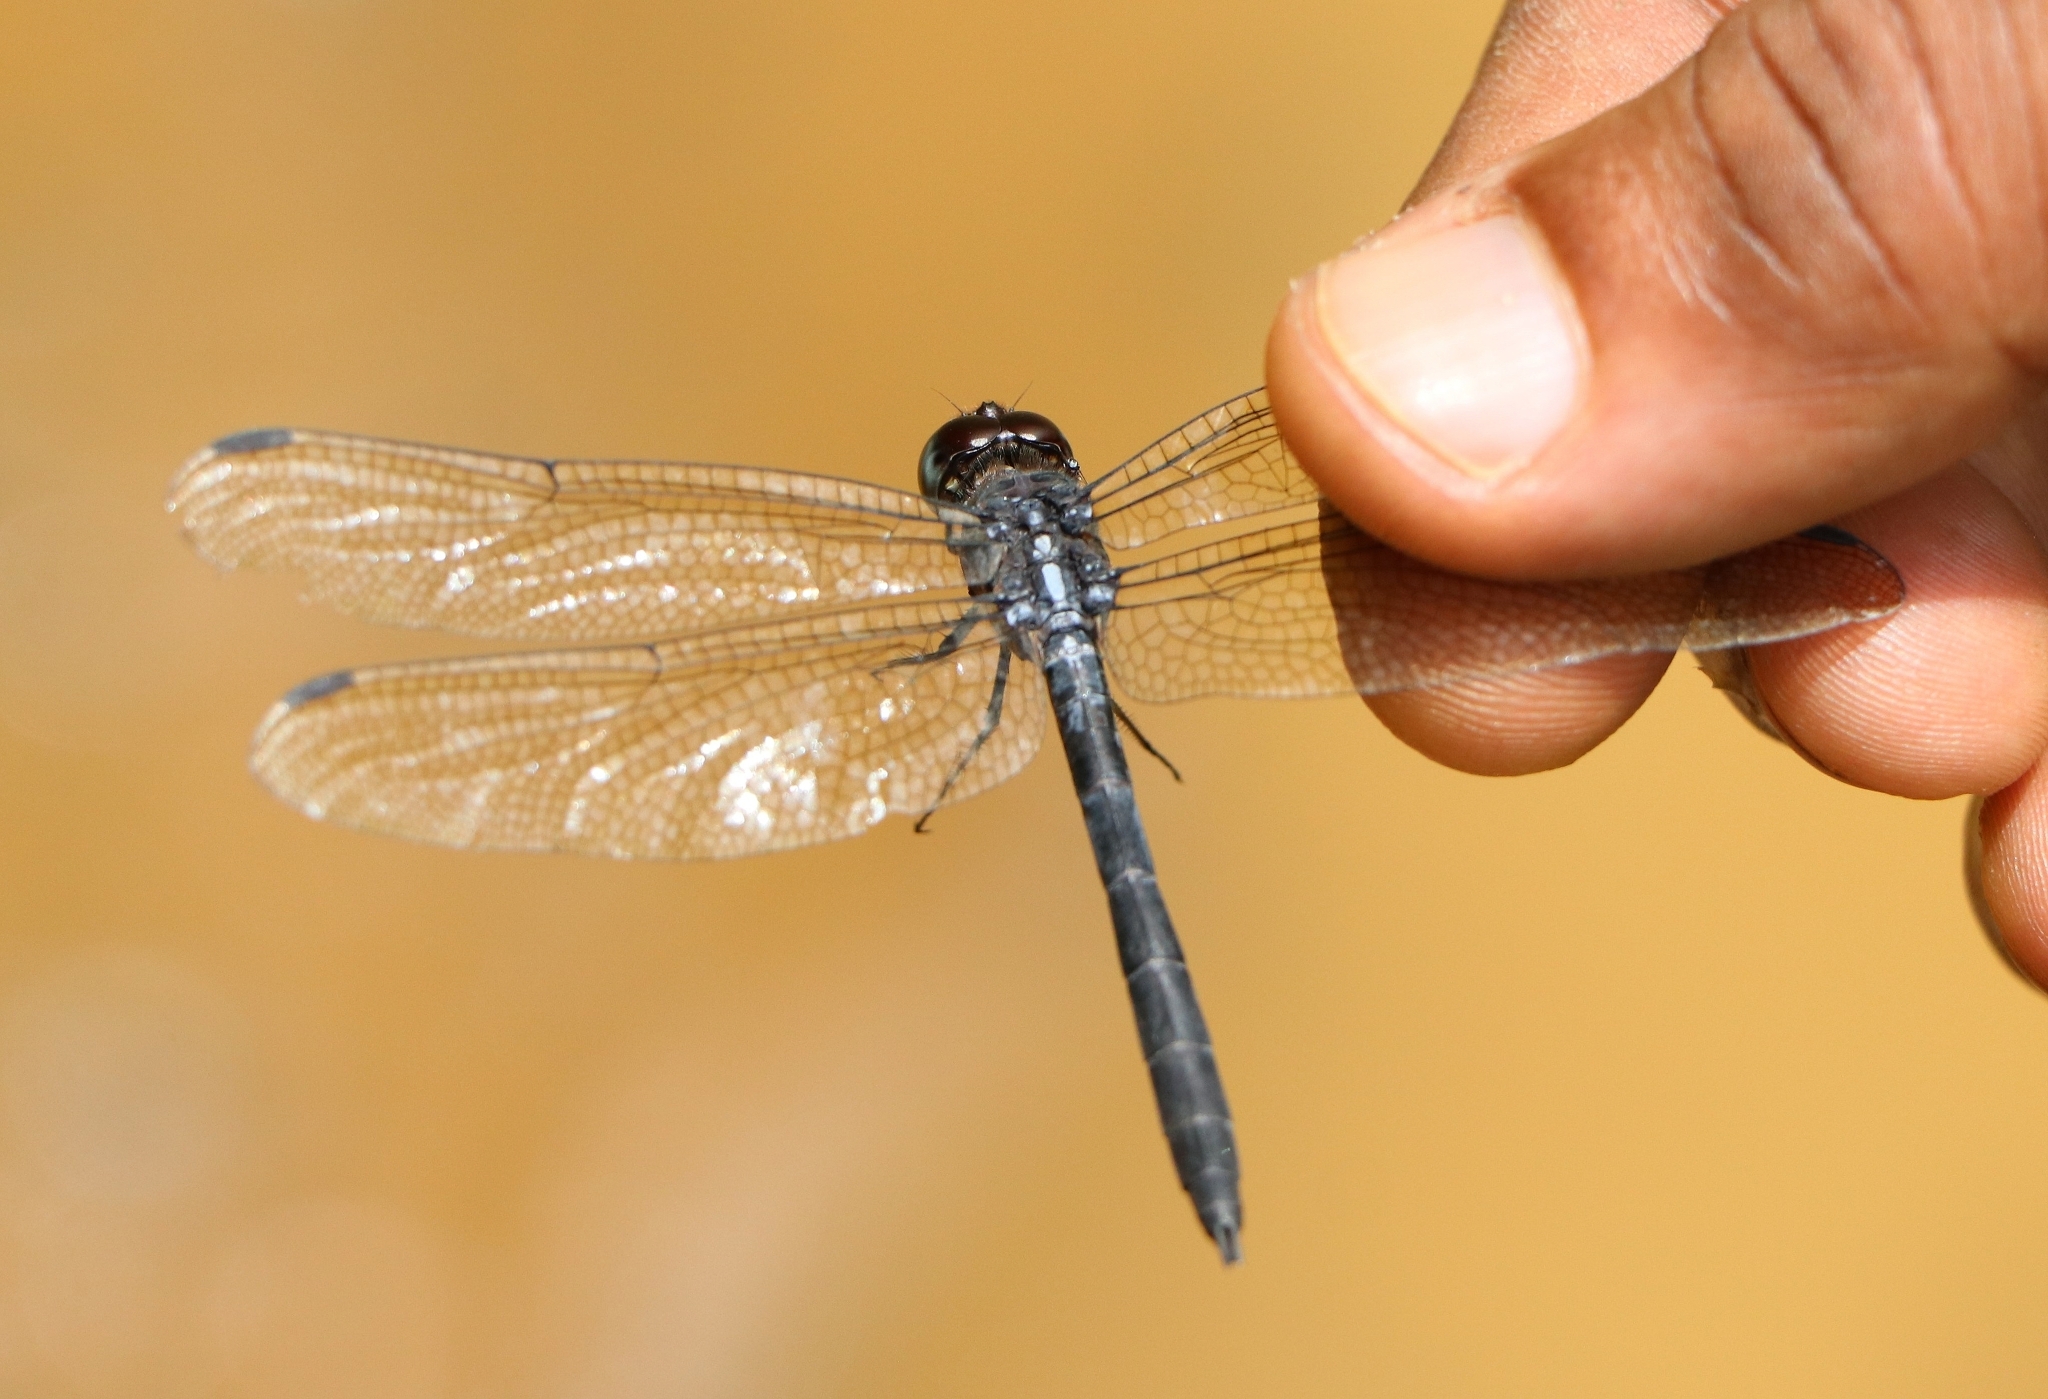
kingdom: Animalia
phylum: Arthropoda
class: Insecta
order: Odonata
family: Libellulidae
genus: Cratilla
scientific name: Cratilla lineata
